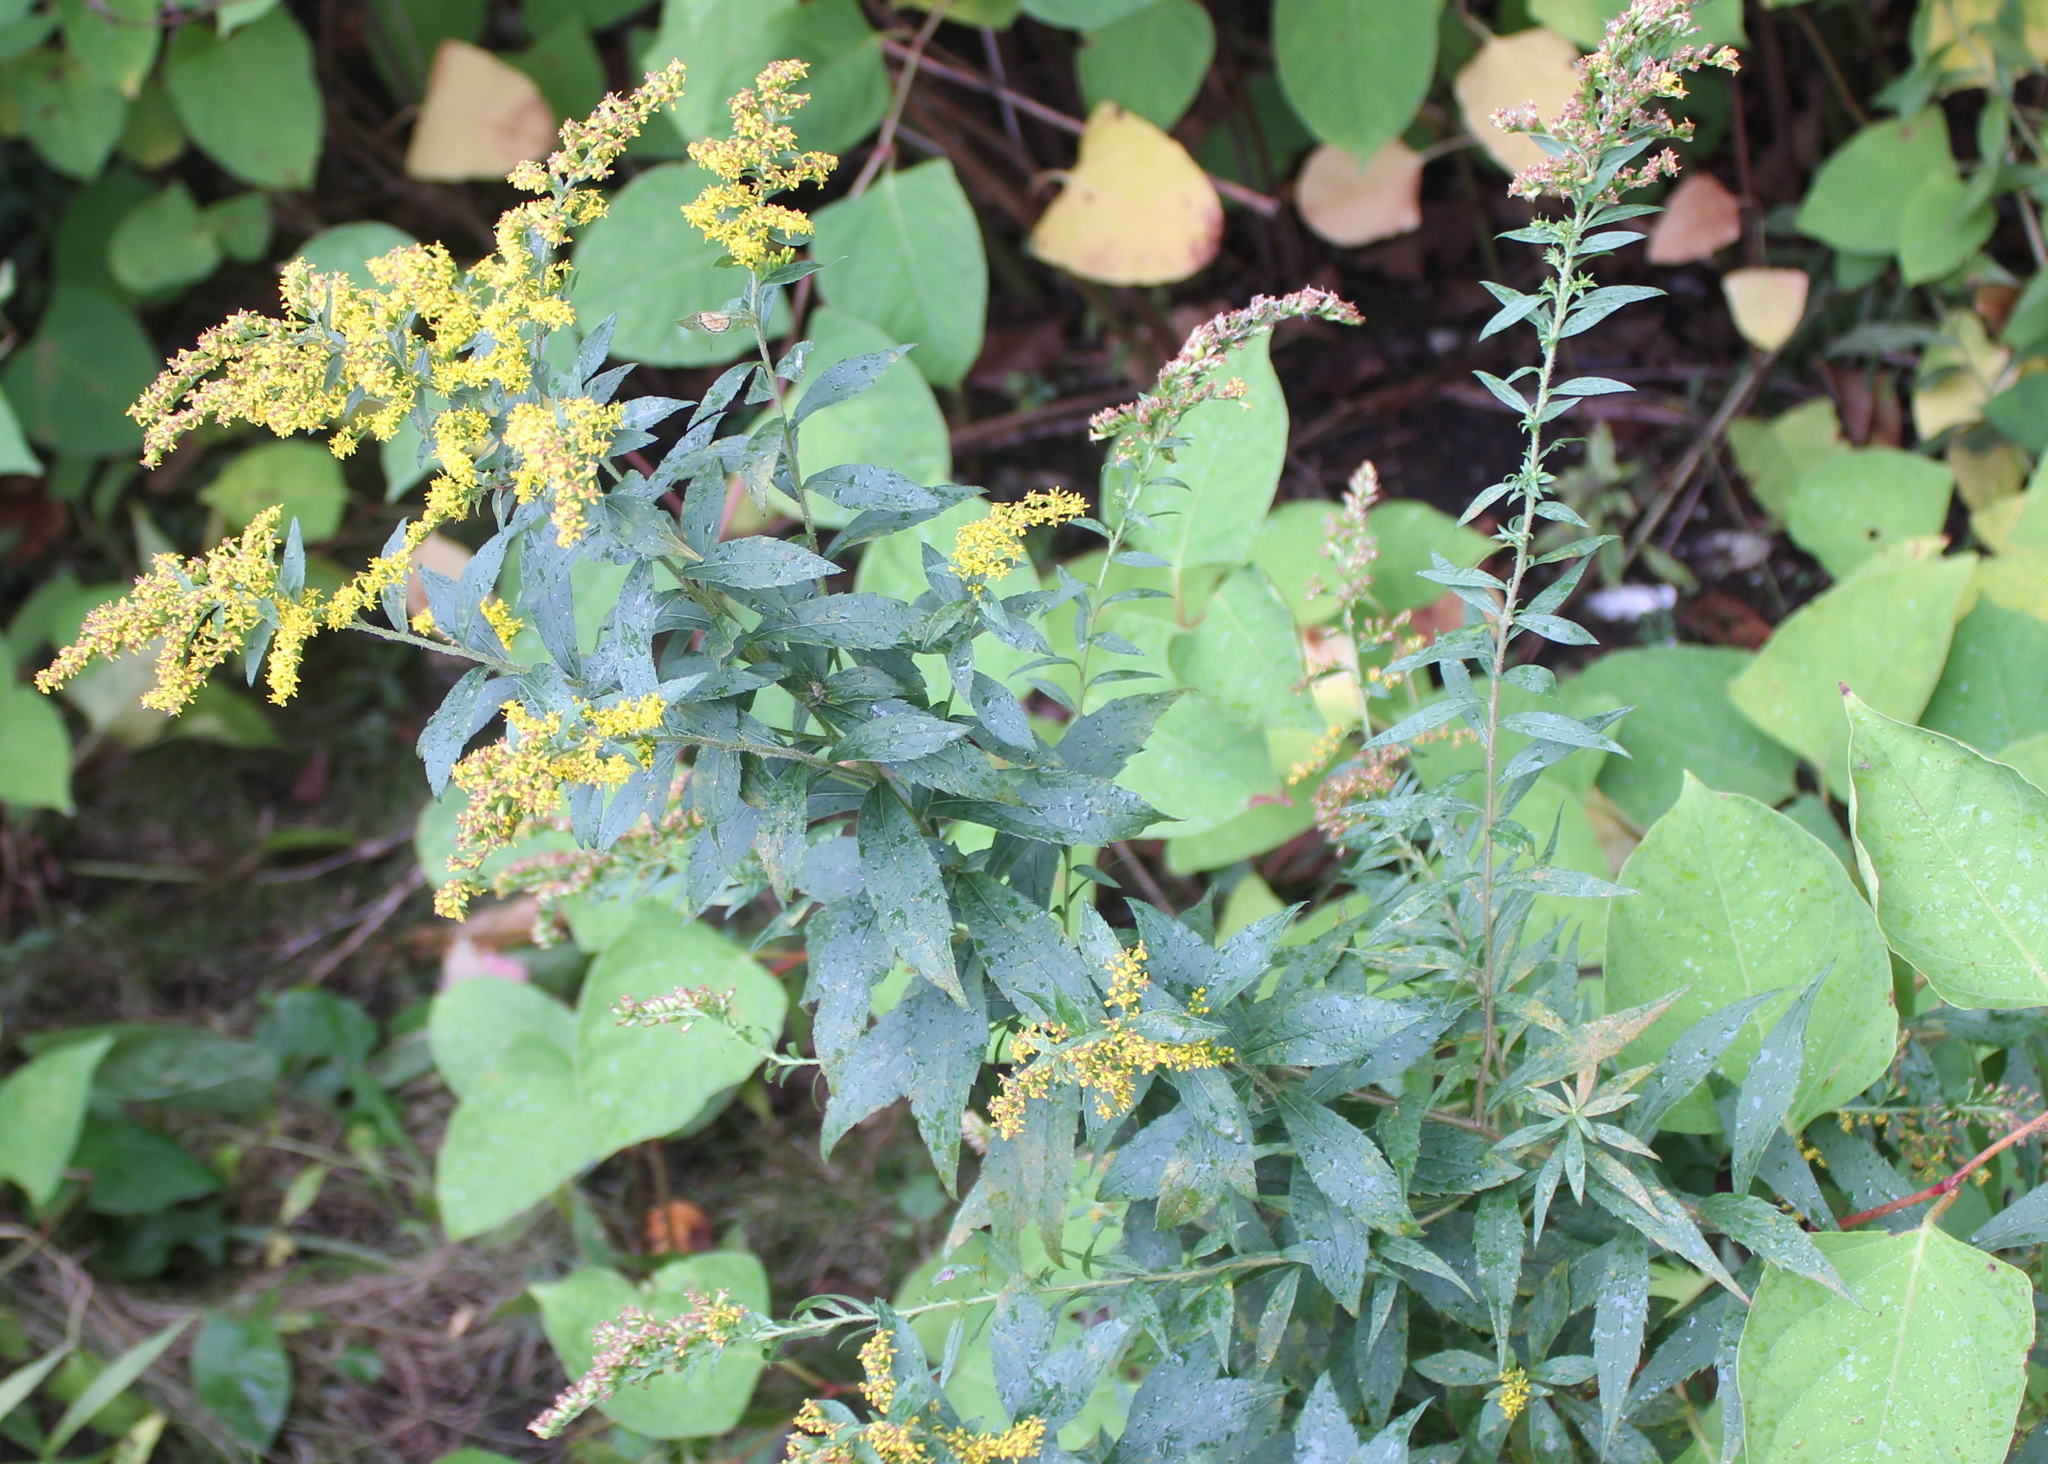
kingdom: Plantae
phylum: Tracheophyta
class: Magnoliopsida
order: Asterales
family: Asteraceae
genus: Solidago
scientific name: Solidago rugosa
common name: Rough-stemmed goldenrod
